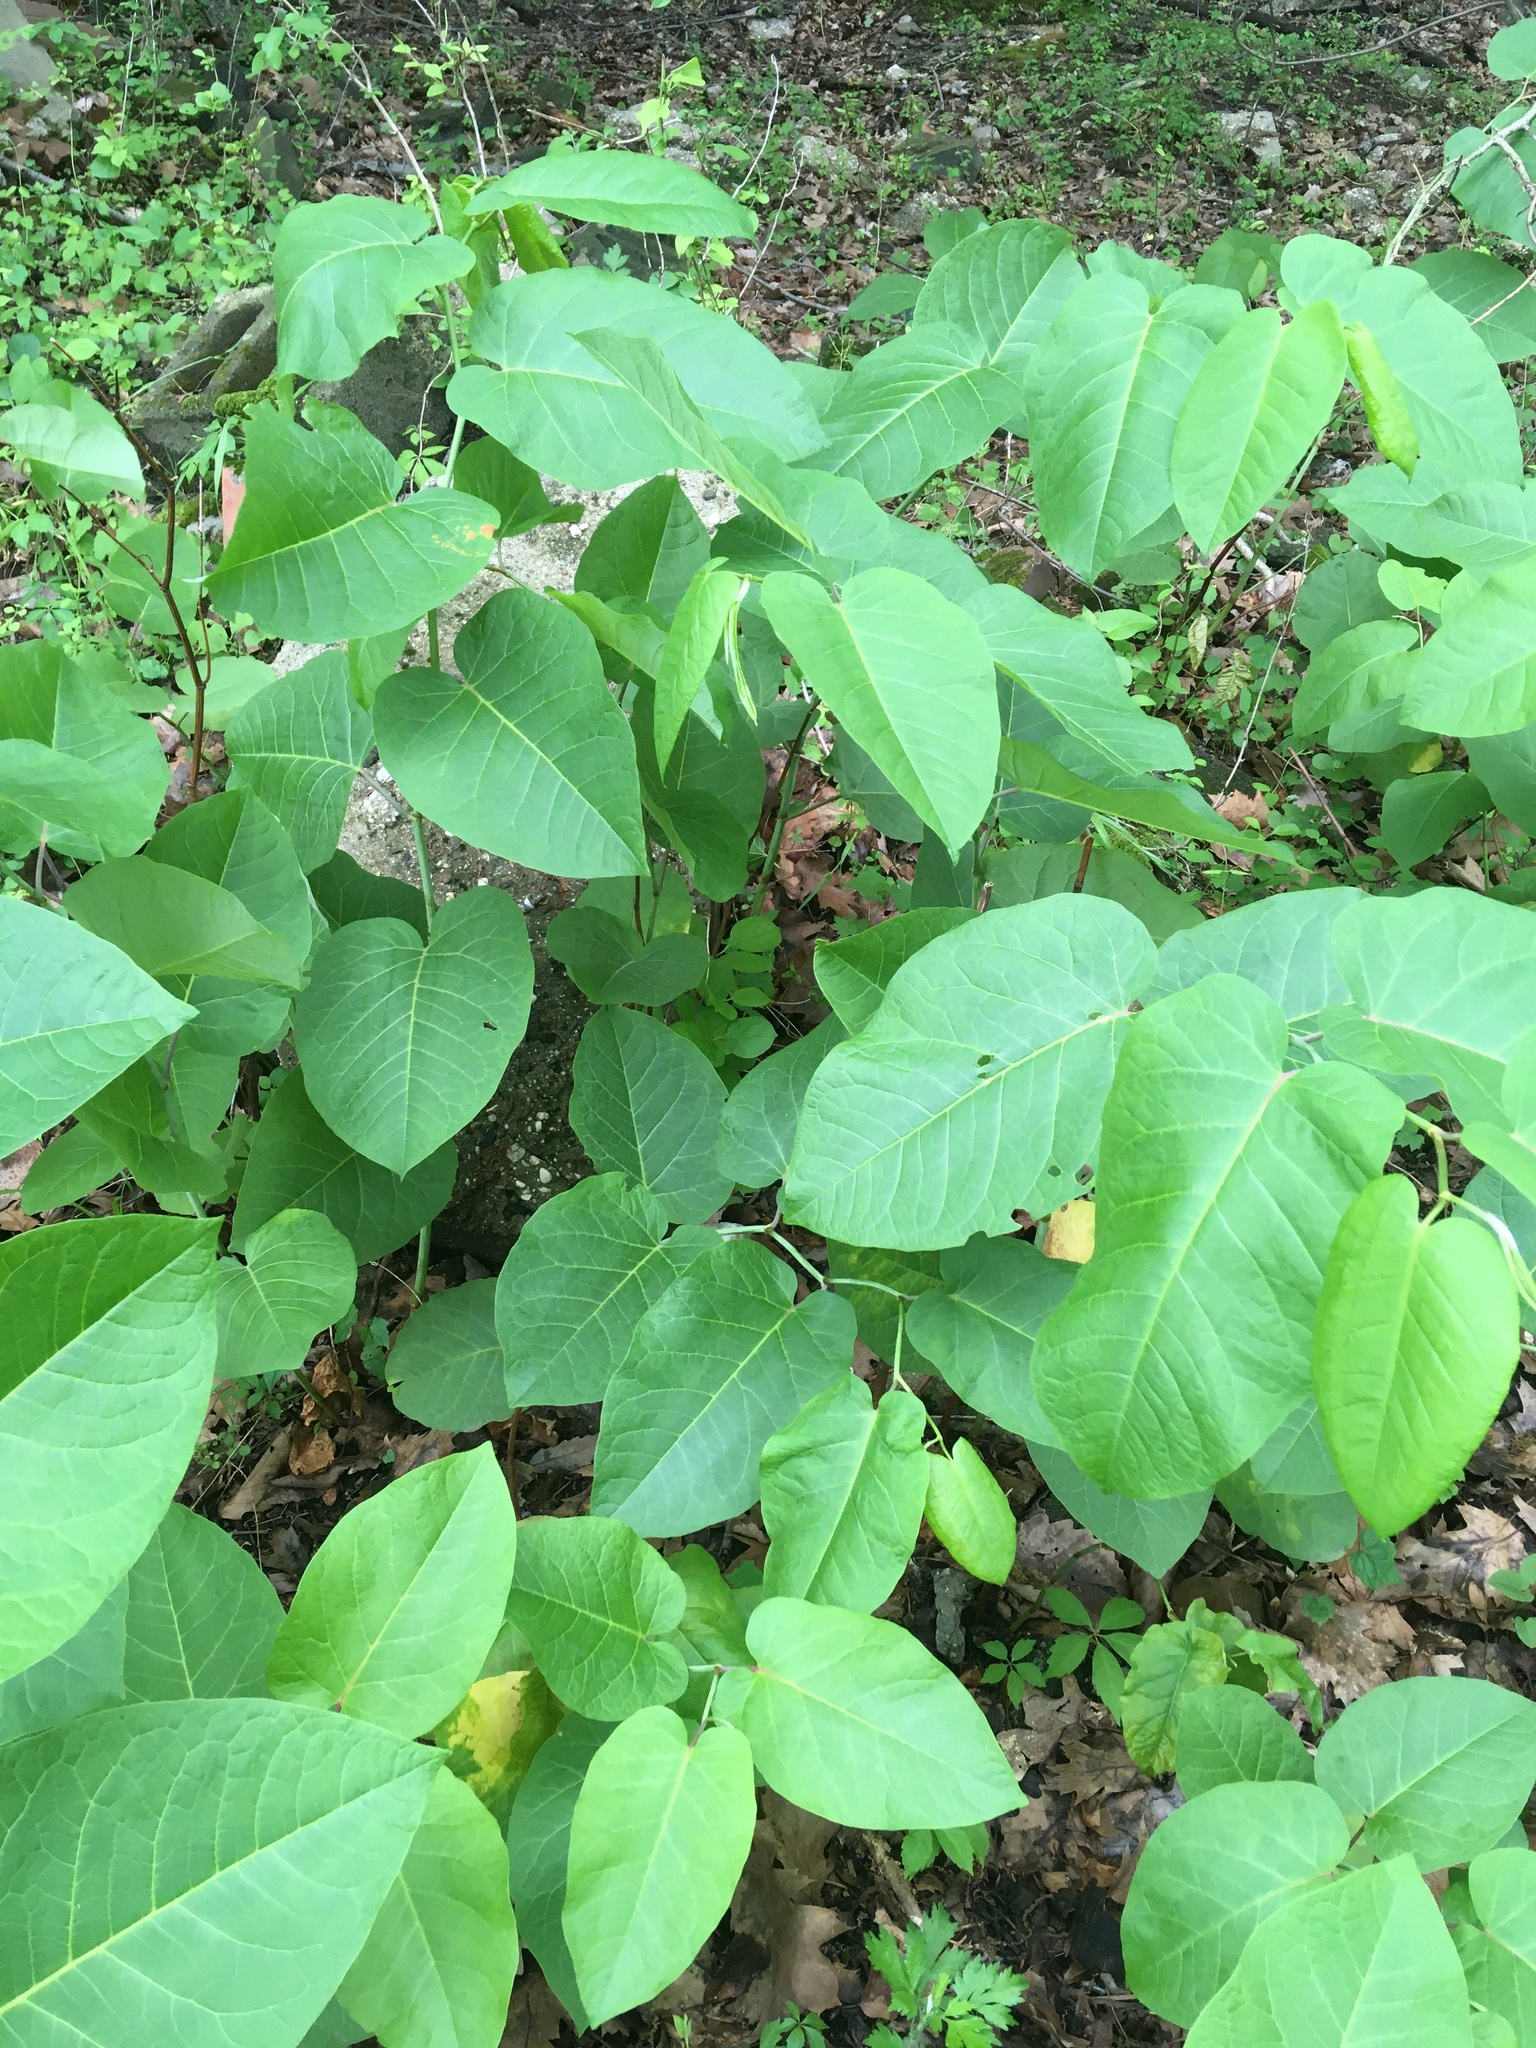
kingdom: Plantae
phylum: Tracheophyta
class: Magnoliopsida
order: Caryophyllales
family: Polygonaceae
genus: Reynoutria
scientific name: Reynoutria sachalinensis
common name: Giant knotweed
